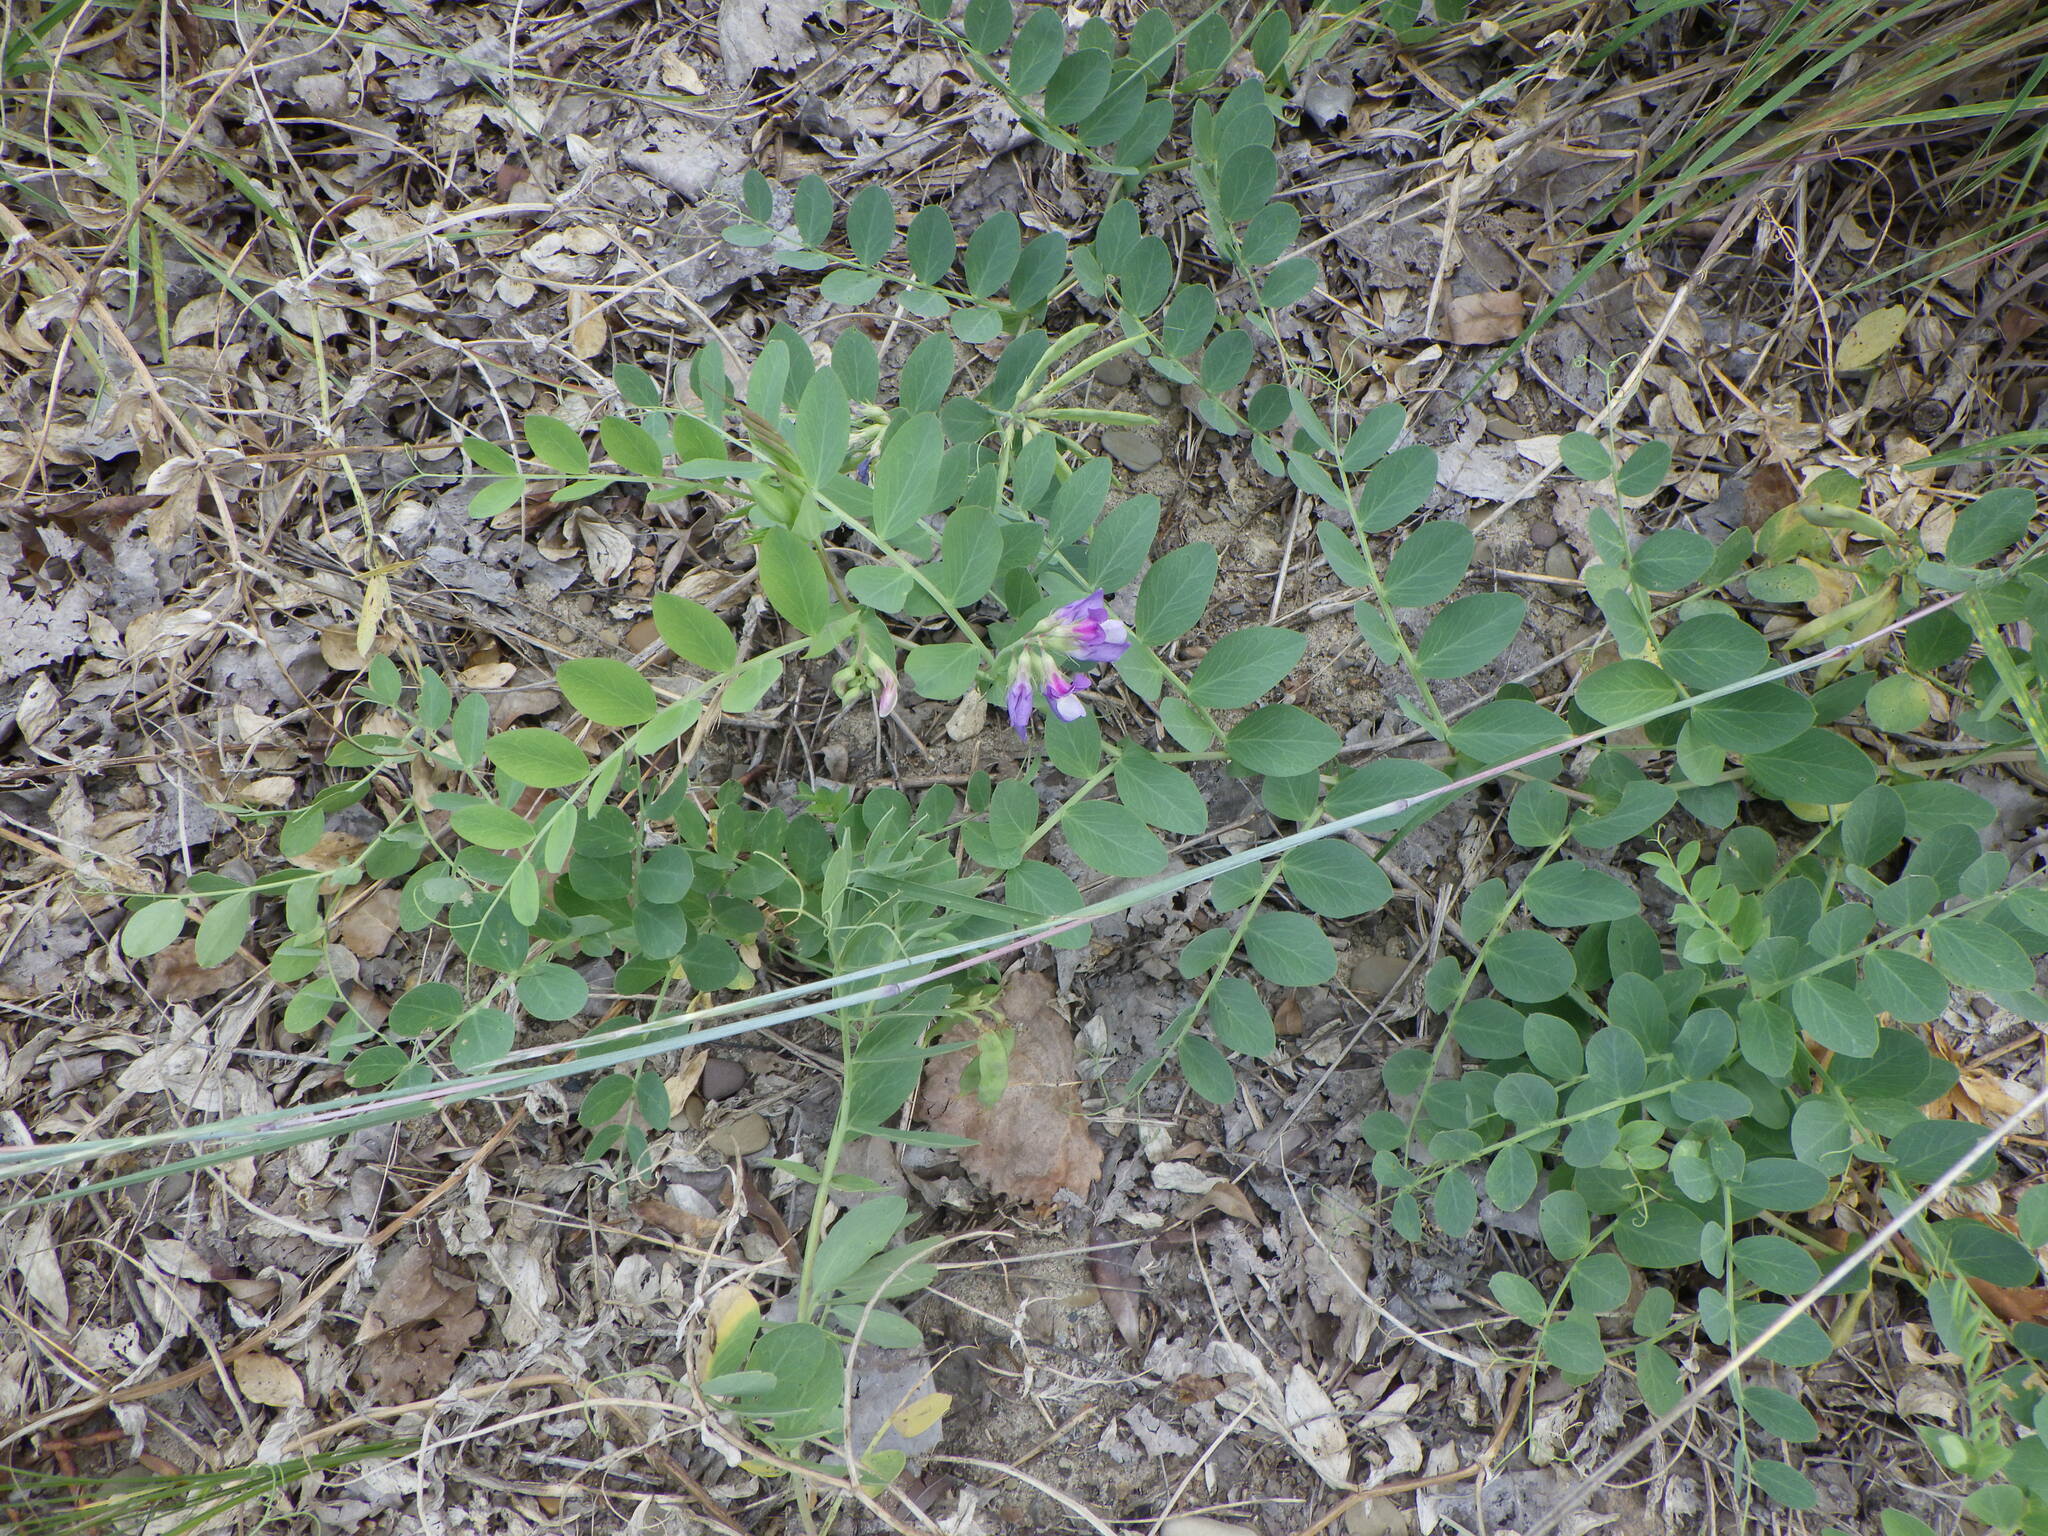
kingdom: Plantae
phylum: Tracheophyta
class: Magnoliopsida
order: Fabales
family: Fabaceae
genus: Lathyrus
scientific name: Lathyrus japonicus
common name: Sea pea
